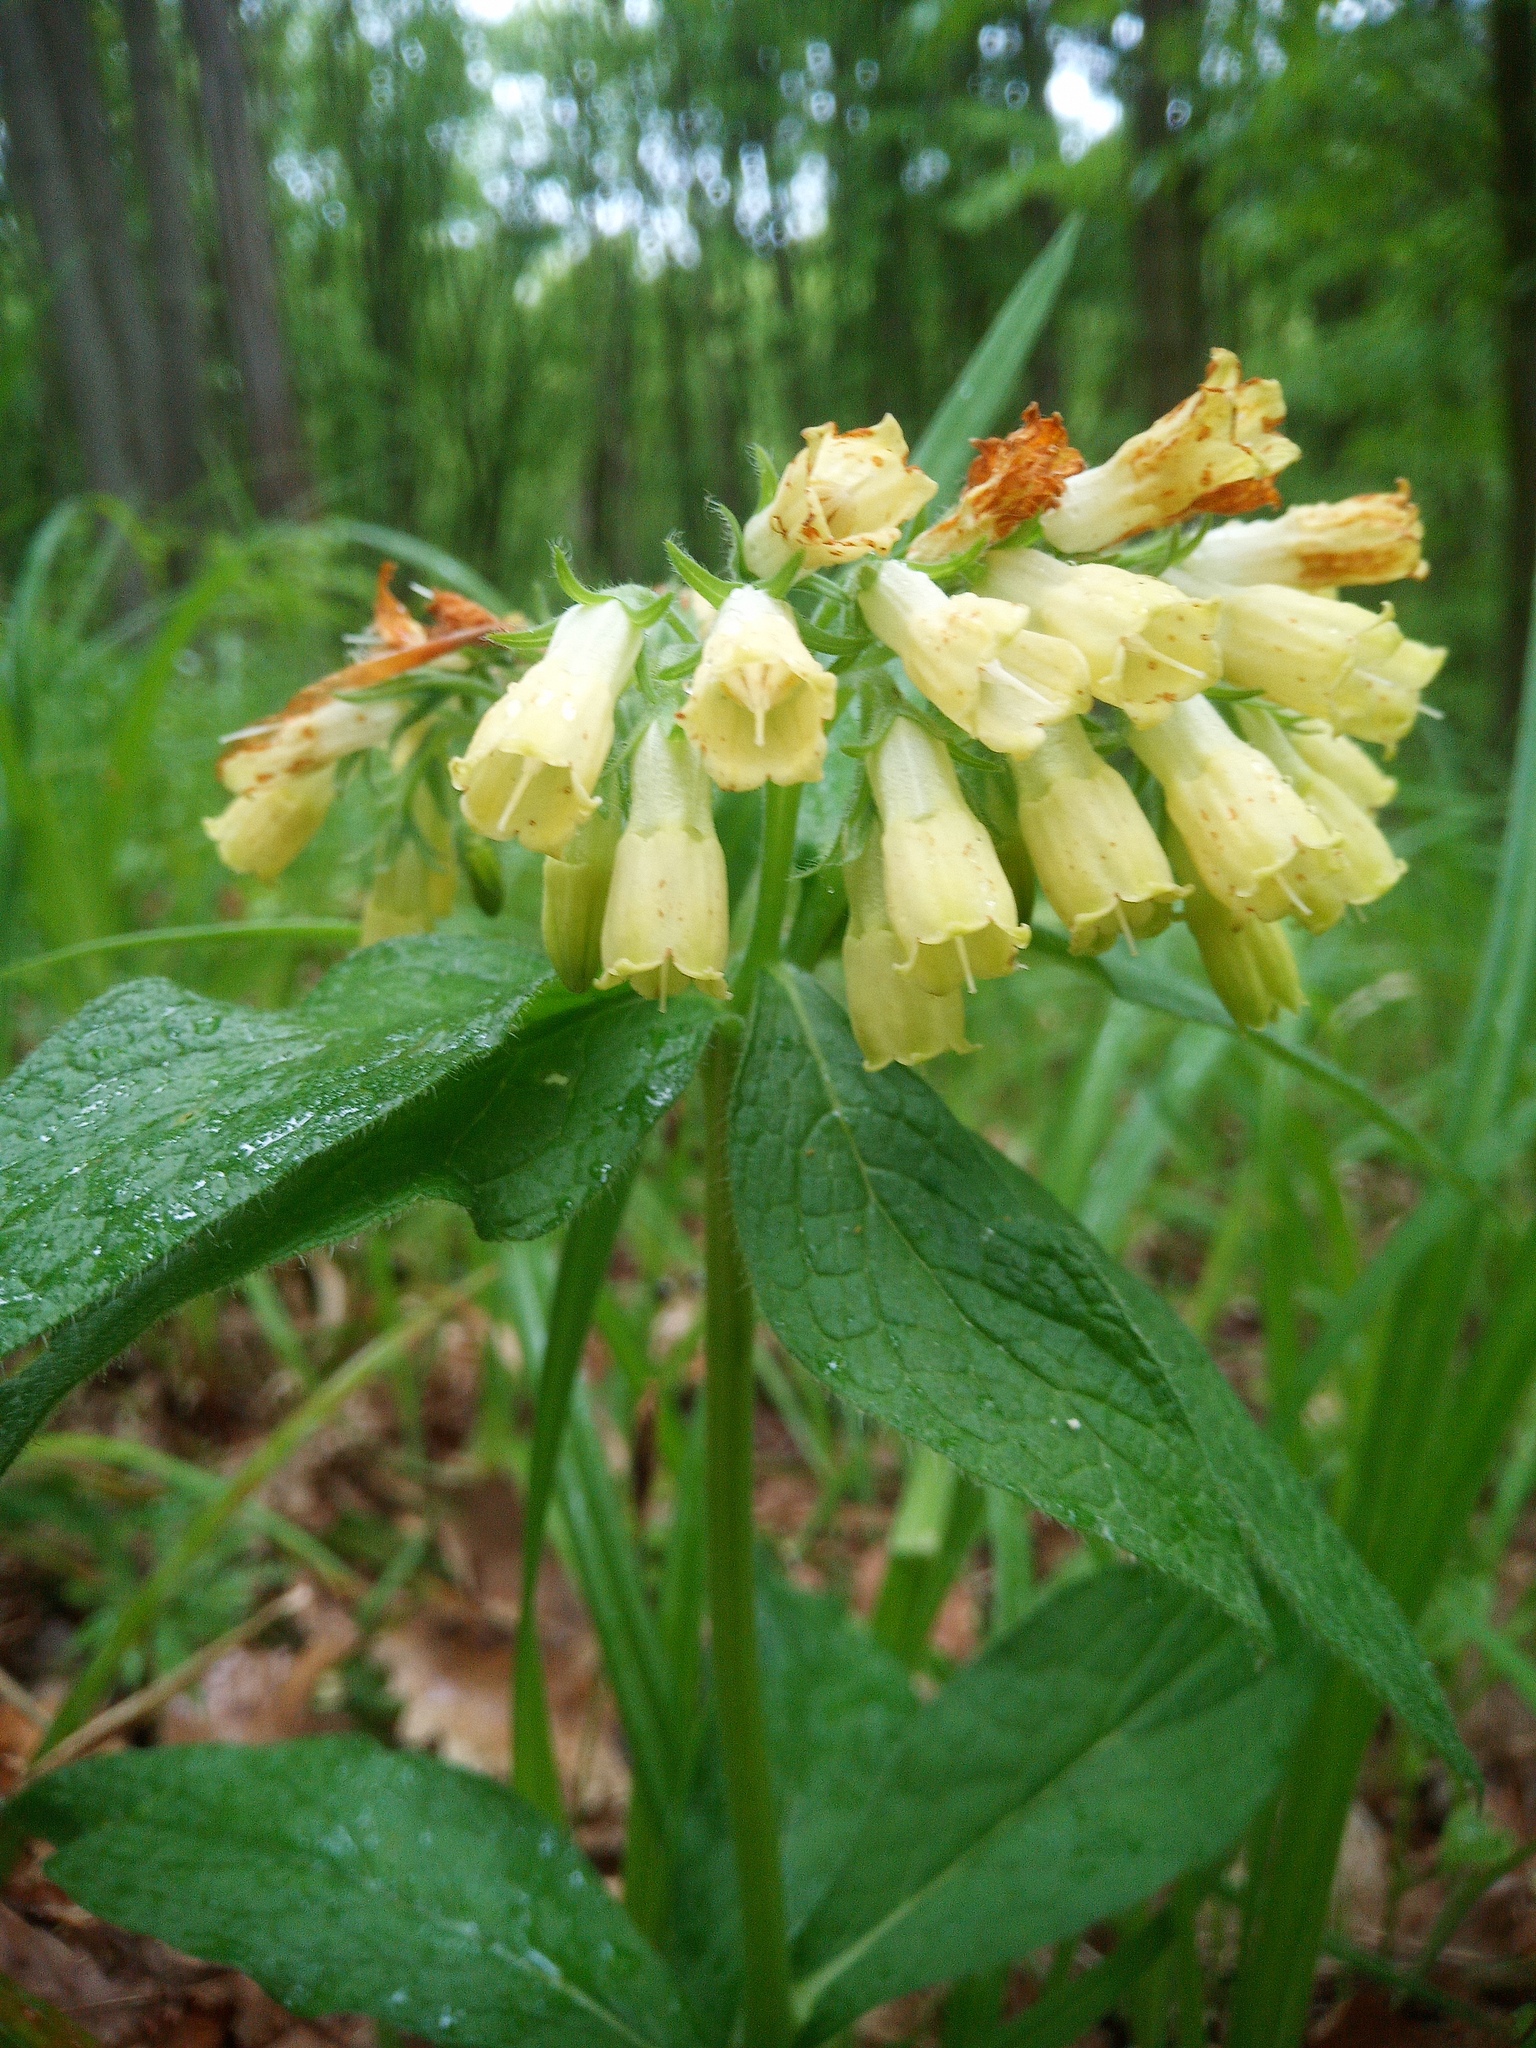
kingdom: Plantae
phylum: Tracheophyta
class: Magnoliopsida
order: Boraginales
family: Boraginaceae
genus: Symphytum
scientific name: Symphytum tuberosum
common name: Tuberous comfrey
